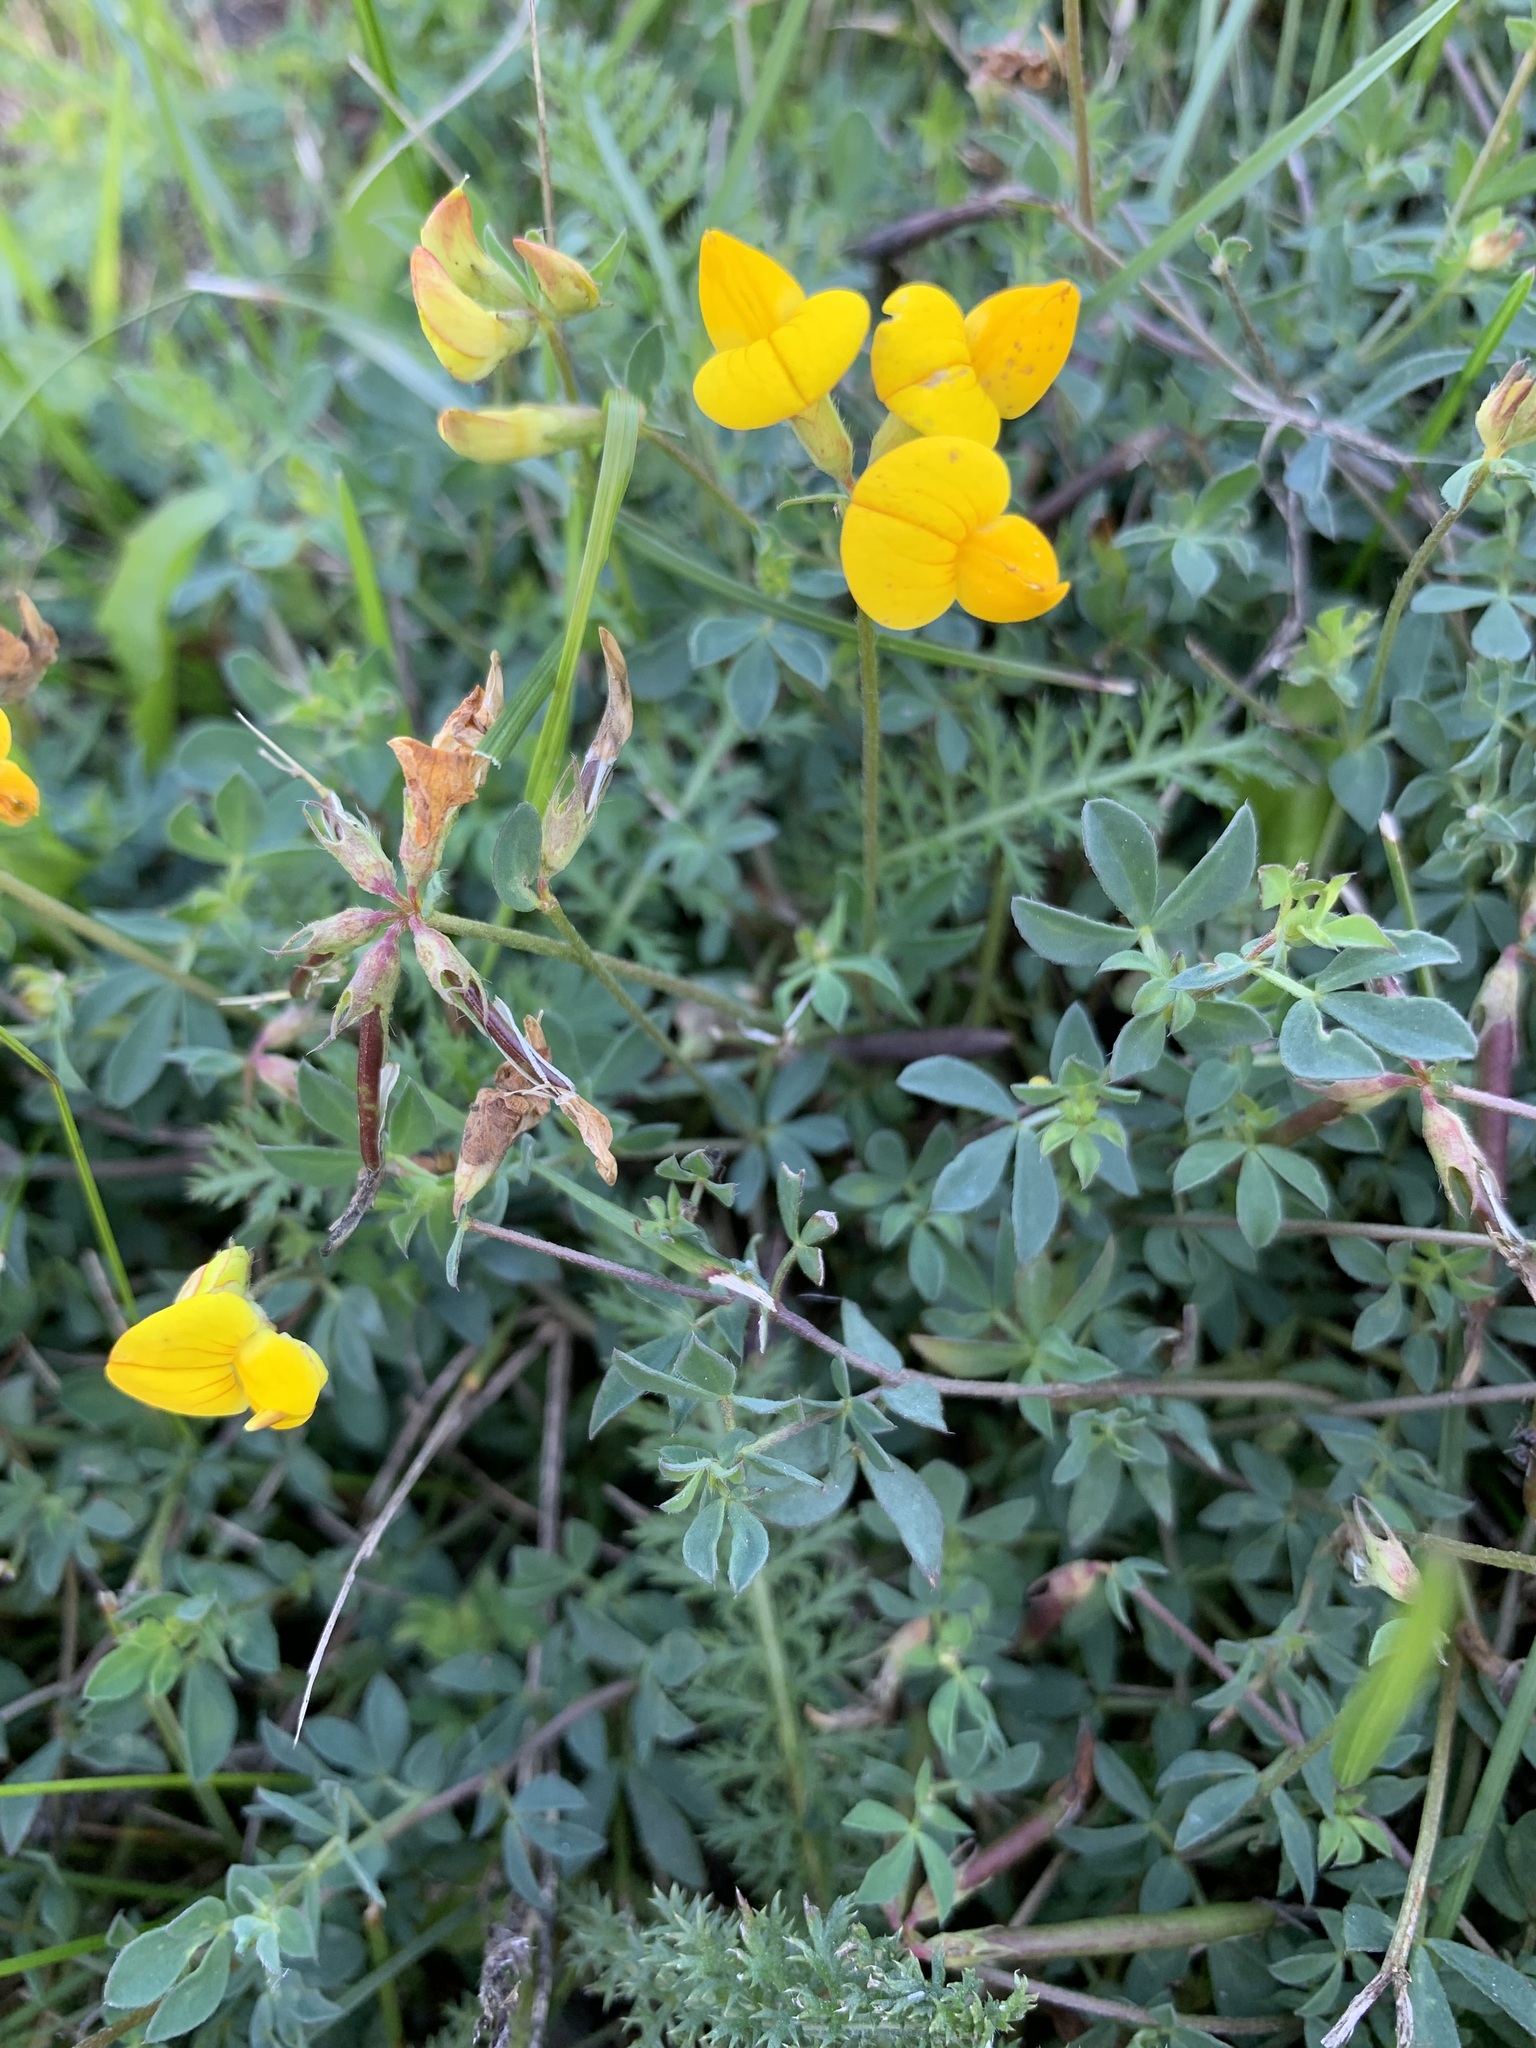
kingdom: Plantae
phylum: Tracheophyta
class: Magnoliopsida
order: Fabales
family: Fabaceae
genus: Lotus
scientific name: Lotus corniculatus
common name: Common bird's-foot-trefoil
